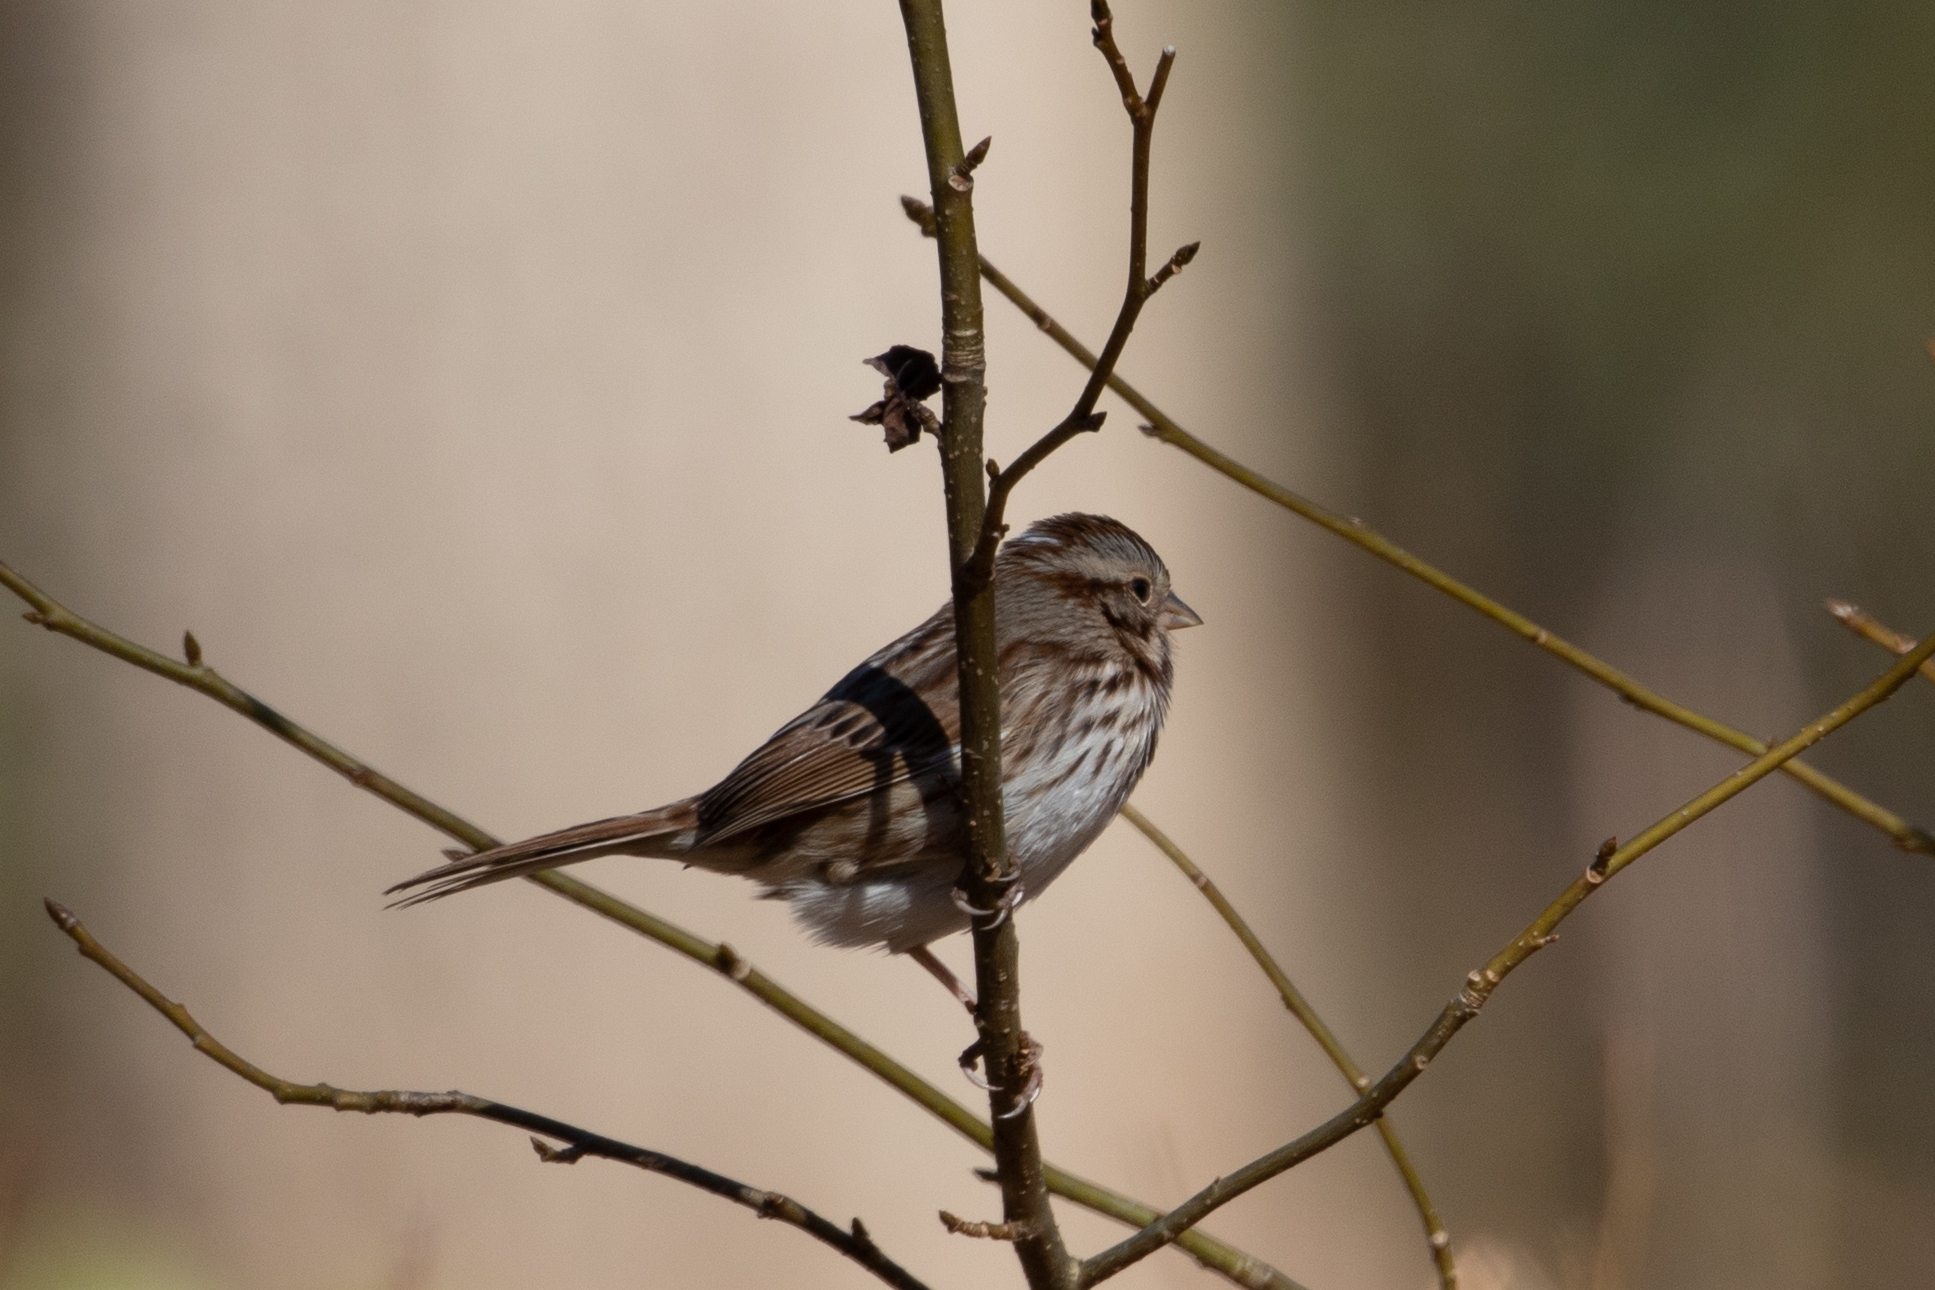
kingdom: Animalia
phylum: Chordata
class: Aves
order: Passeriformes
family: Passerellidae
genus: Melospiza
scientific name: Melospiza melodia
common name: Song sparrow
